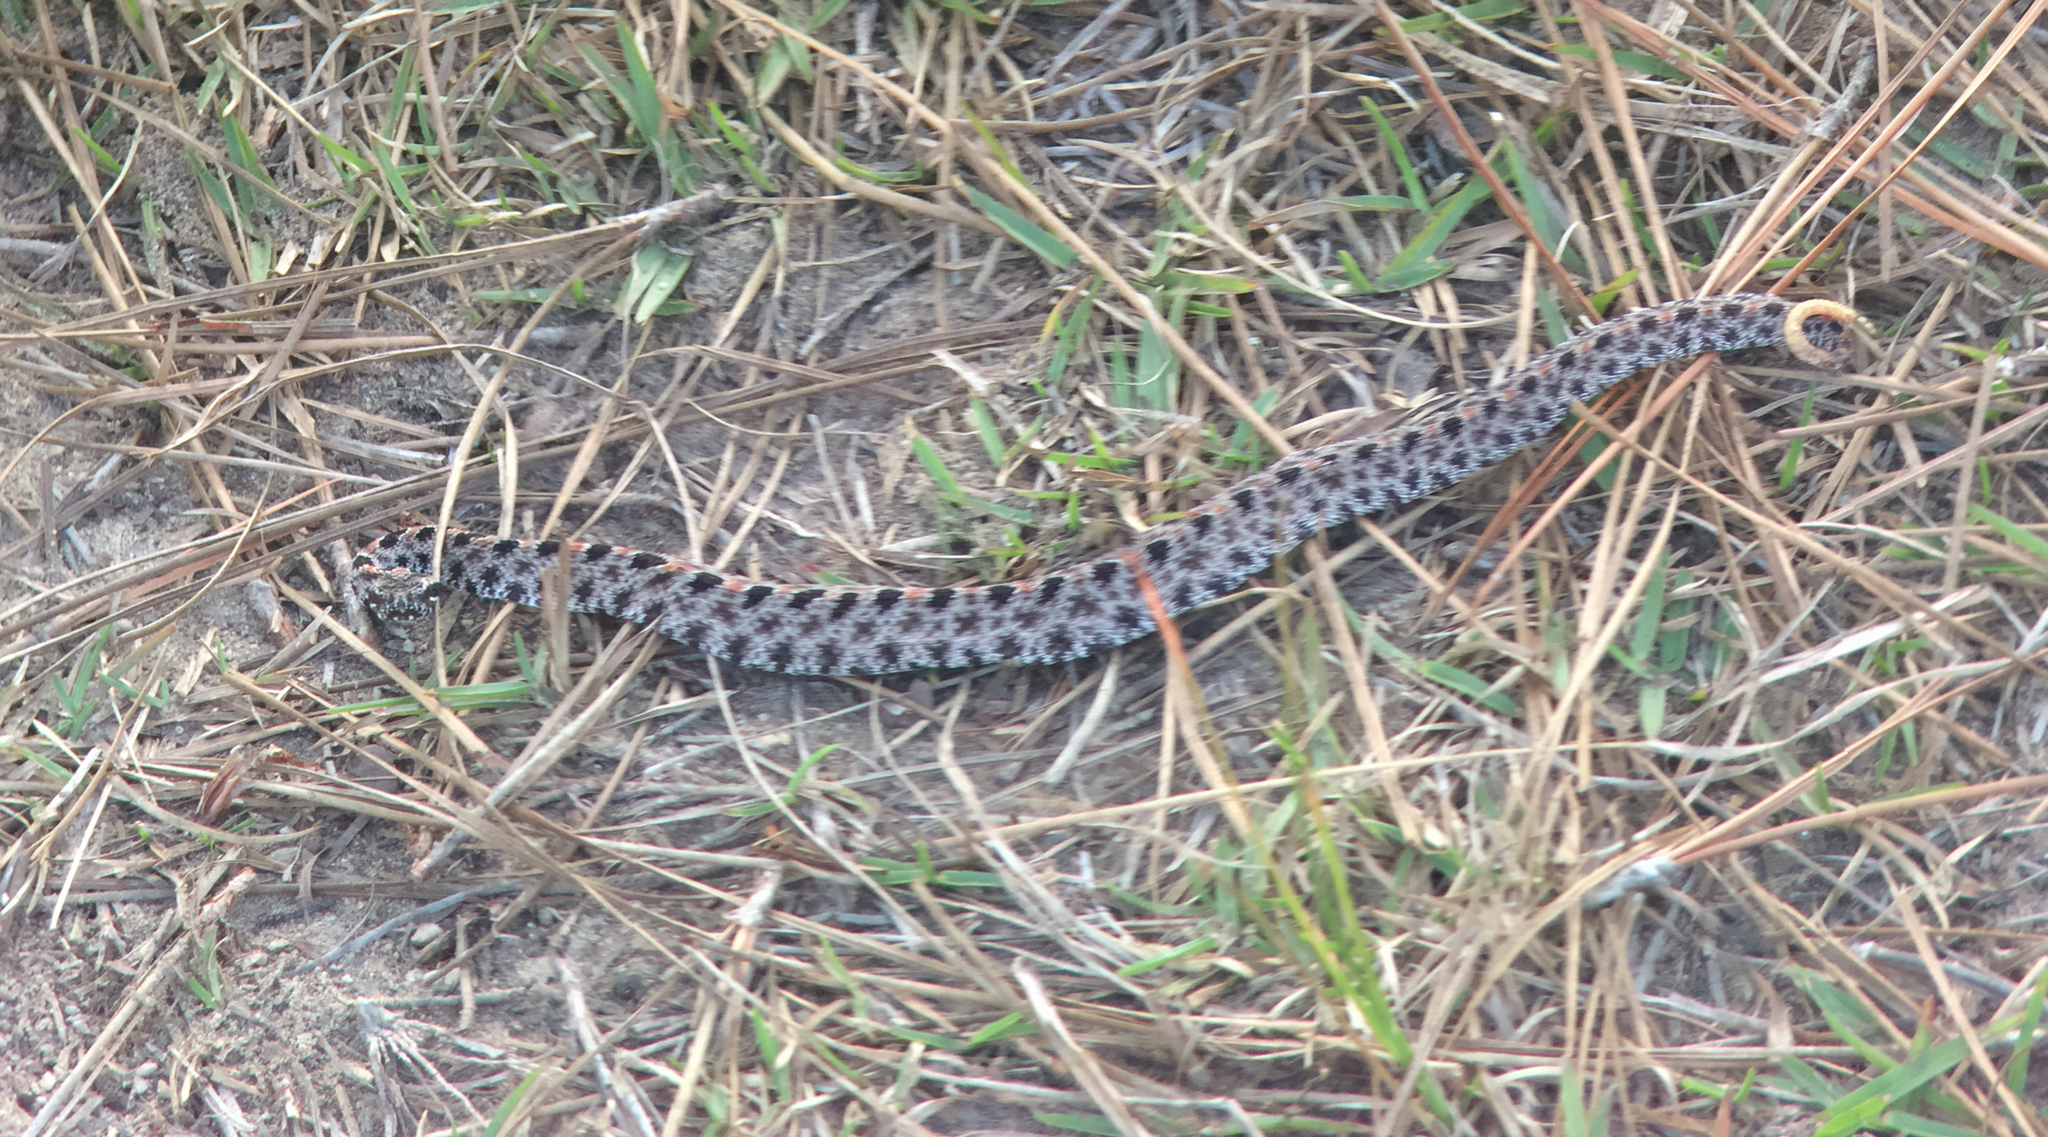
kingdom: Animalia
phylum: Chordata
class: Squamata
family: Viperidae
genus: Sistrurus
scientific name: Sistrurus miliarius
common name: Pygmy rattlesnake
